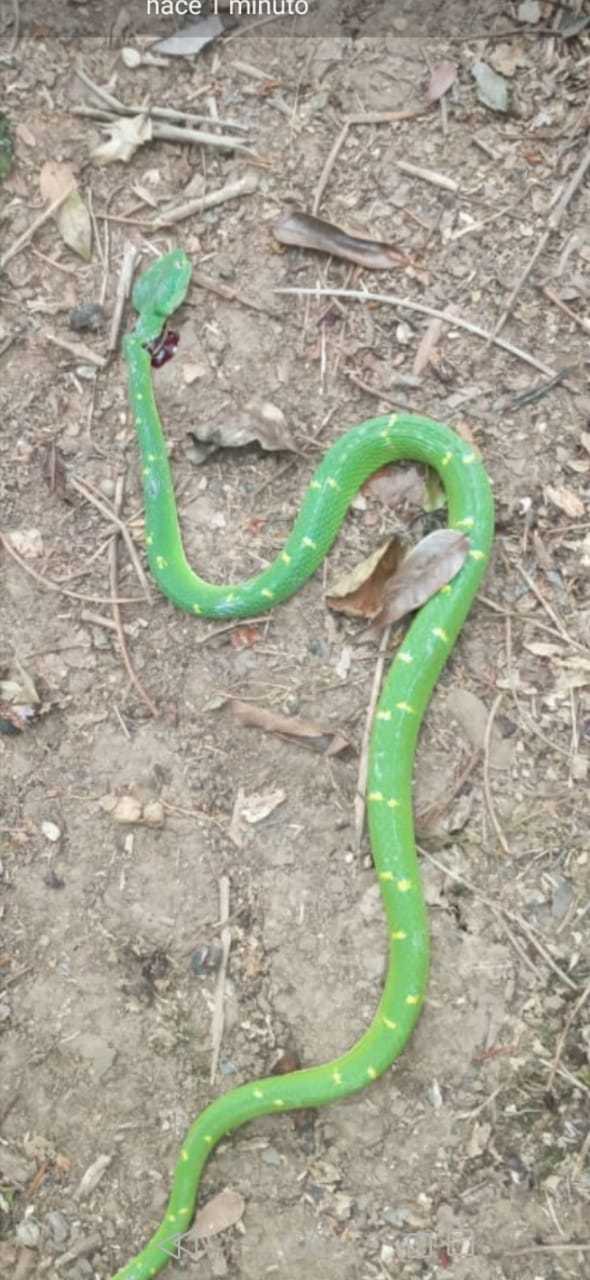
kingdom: Animalia
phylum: Chordata
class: Squamata
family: Viperidae
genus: Bothriechis
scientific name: Bothriechis lateralis
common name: Coffee palm viper
